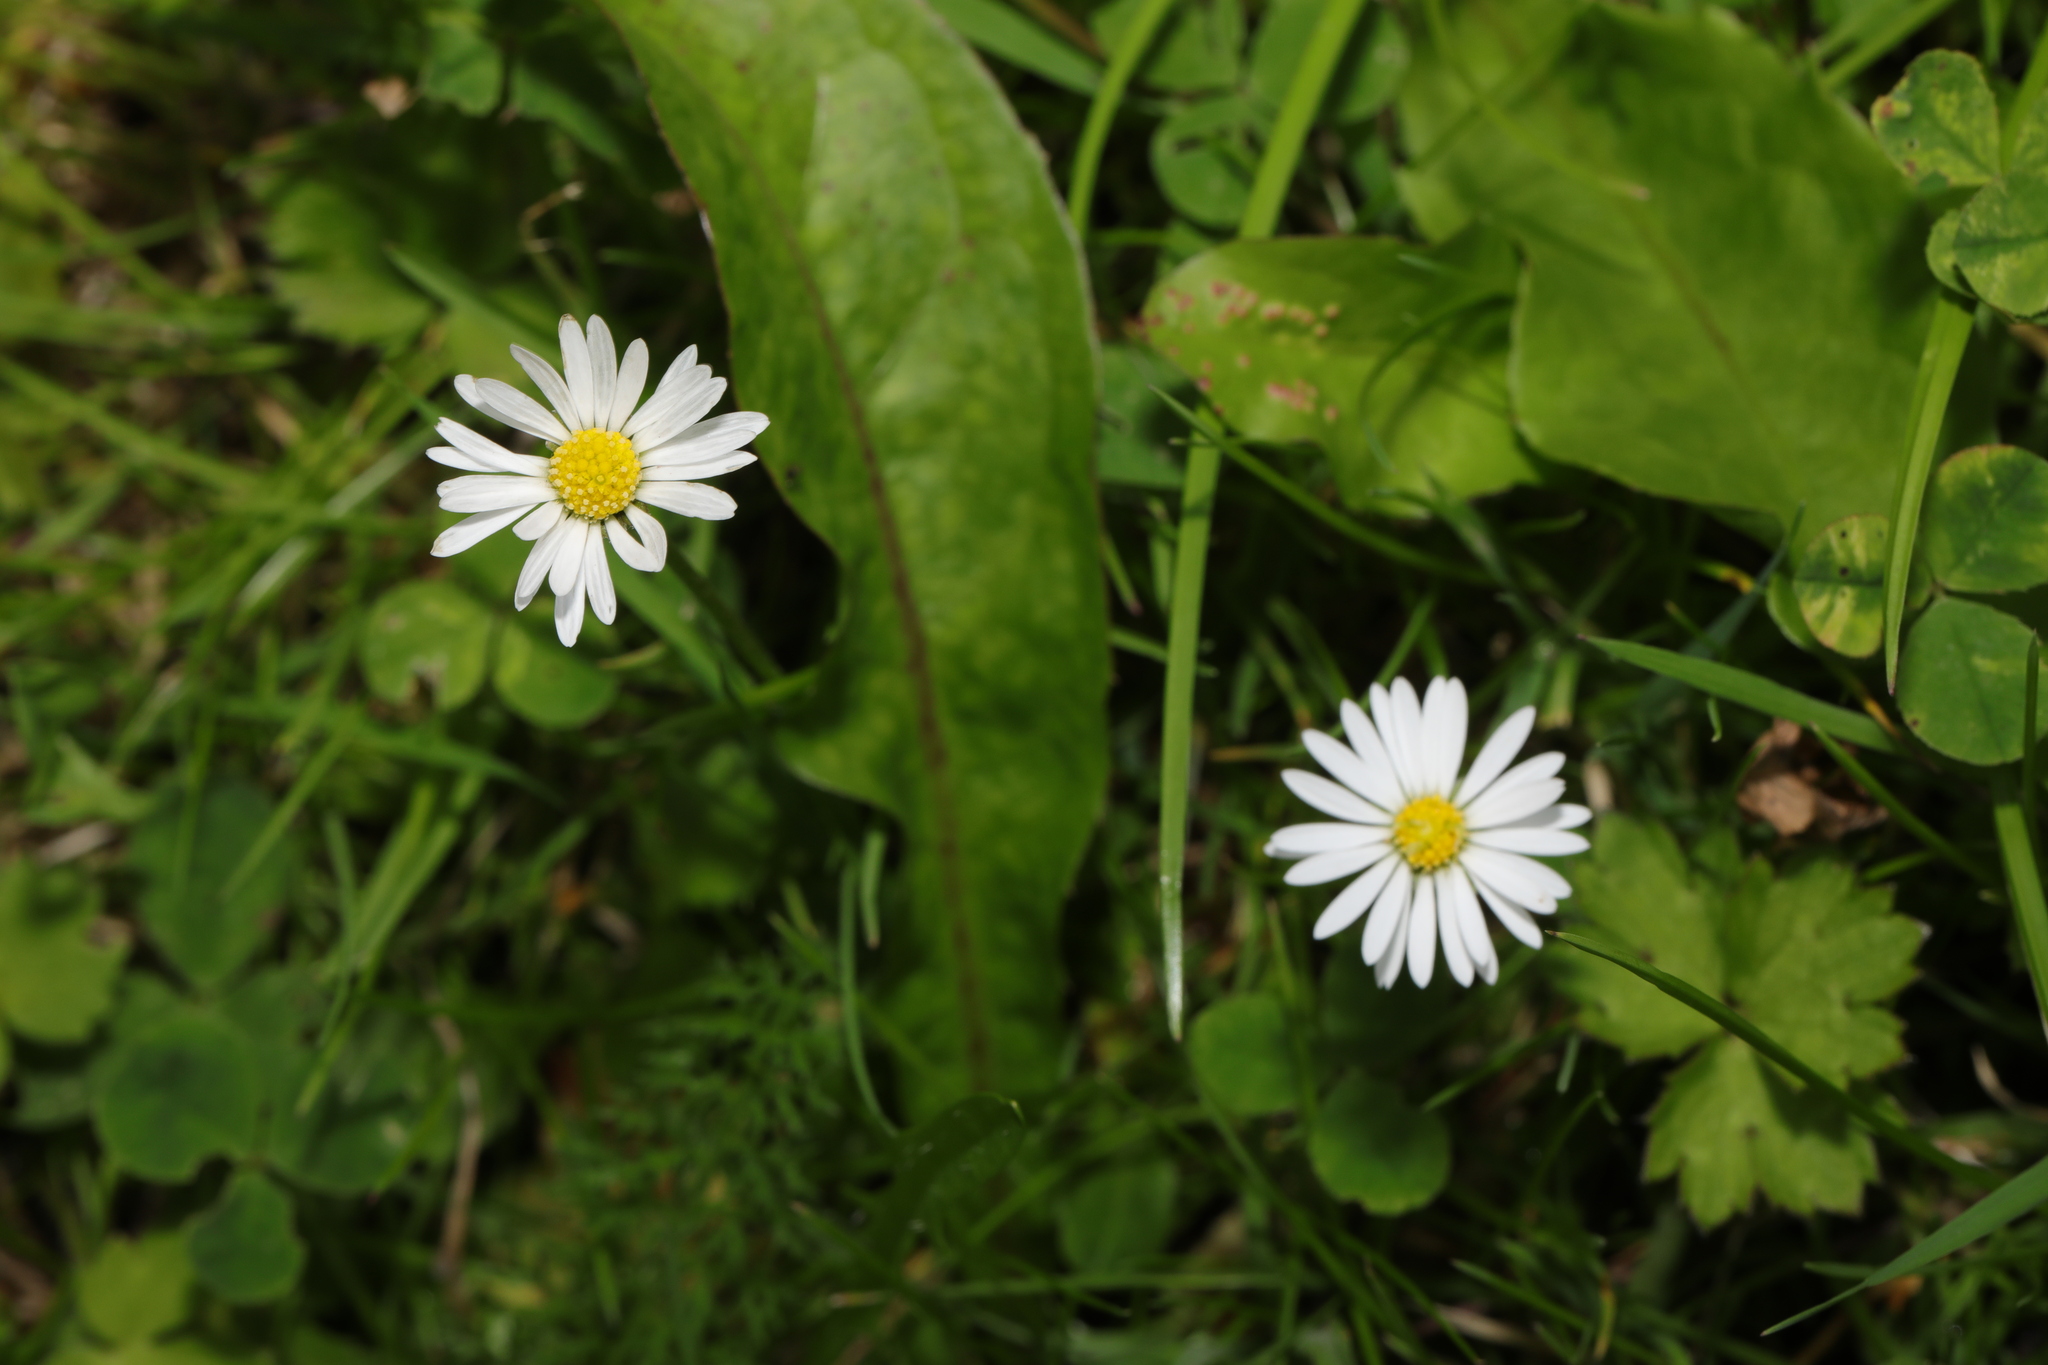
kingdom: Plantae
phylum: Tracheophyta
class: Magnoliopsida
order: Asterales
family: Asteraceae
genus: Bellis
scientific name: Bellis perennis
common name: Lawndaisy
